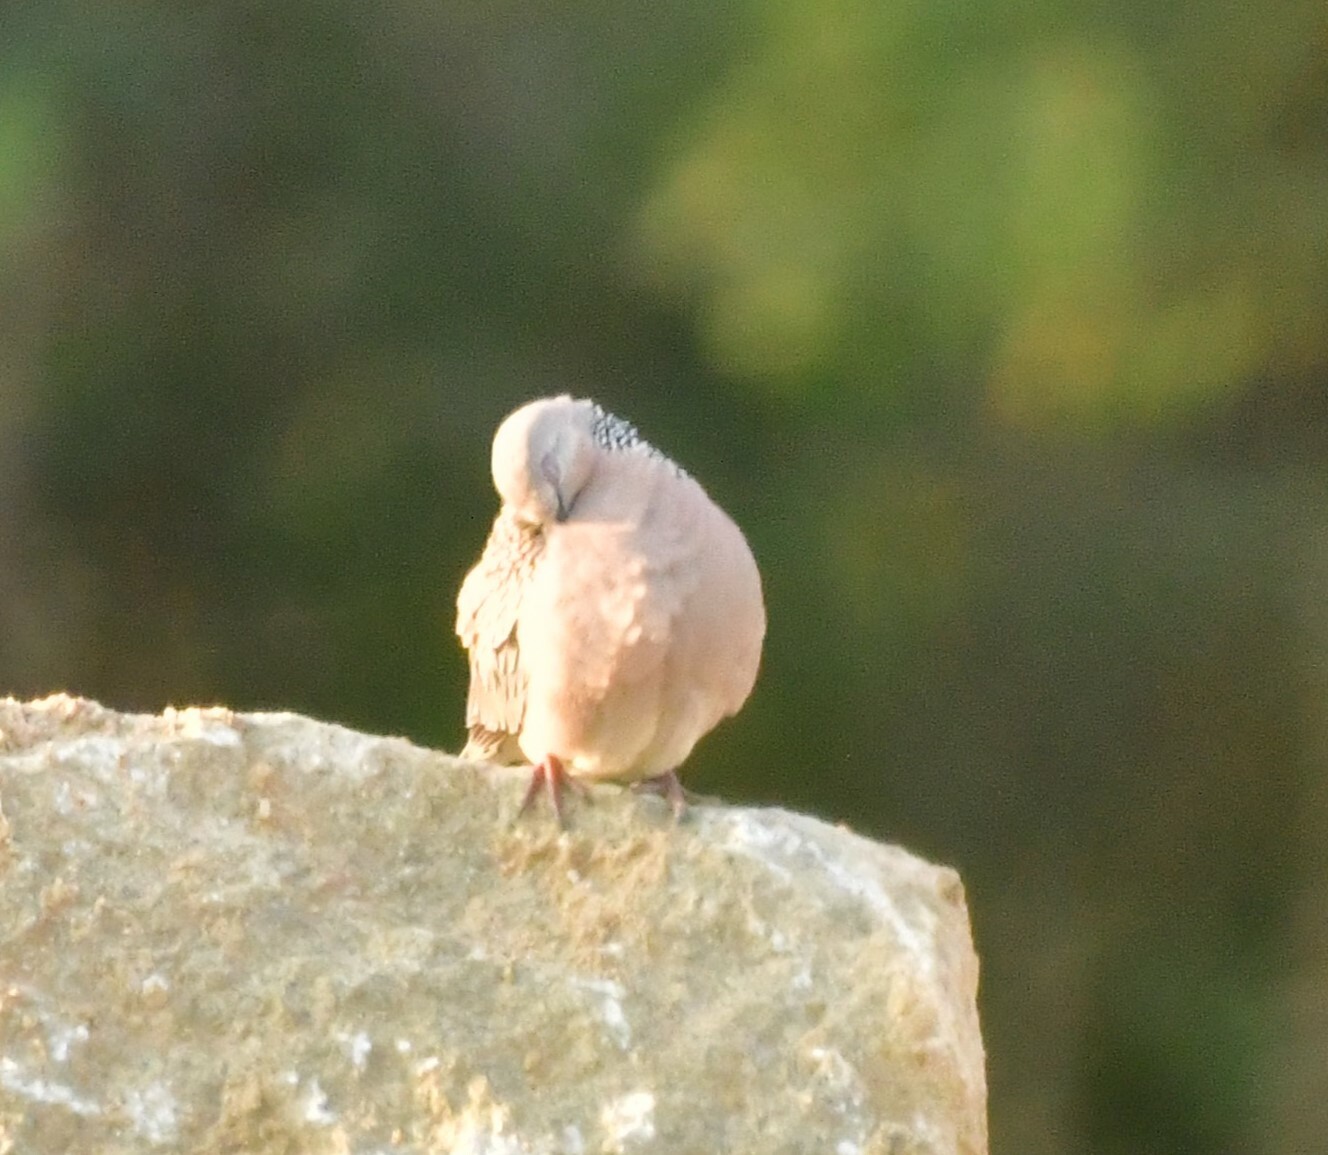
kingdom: Animalia
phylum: Chordata
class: Aves
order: Columbiformes
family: Columbidae
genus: Spilopelia
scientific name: Spilopelia chinensis
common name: Spotted dove
